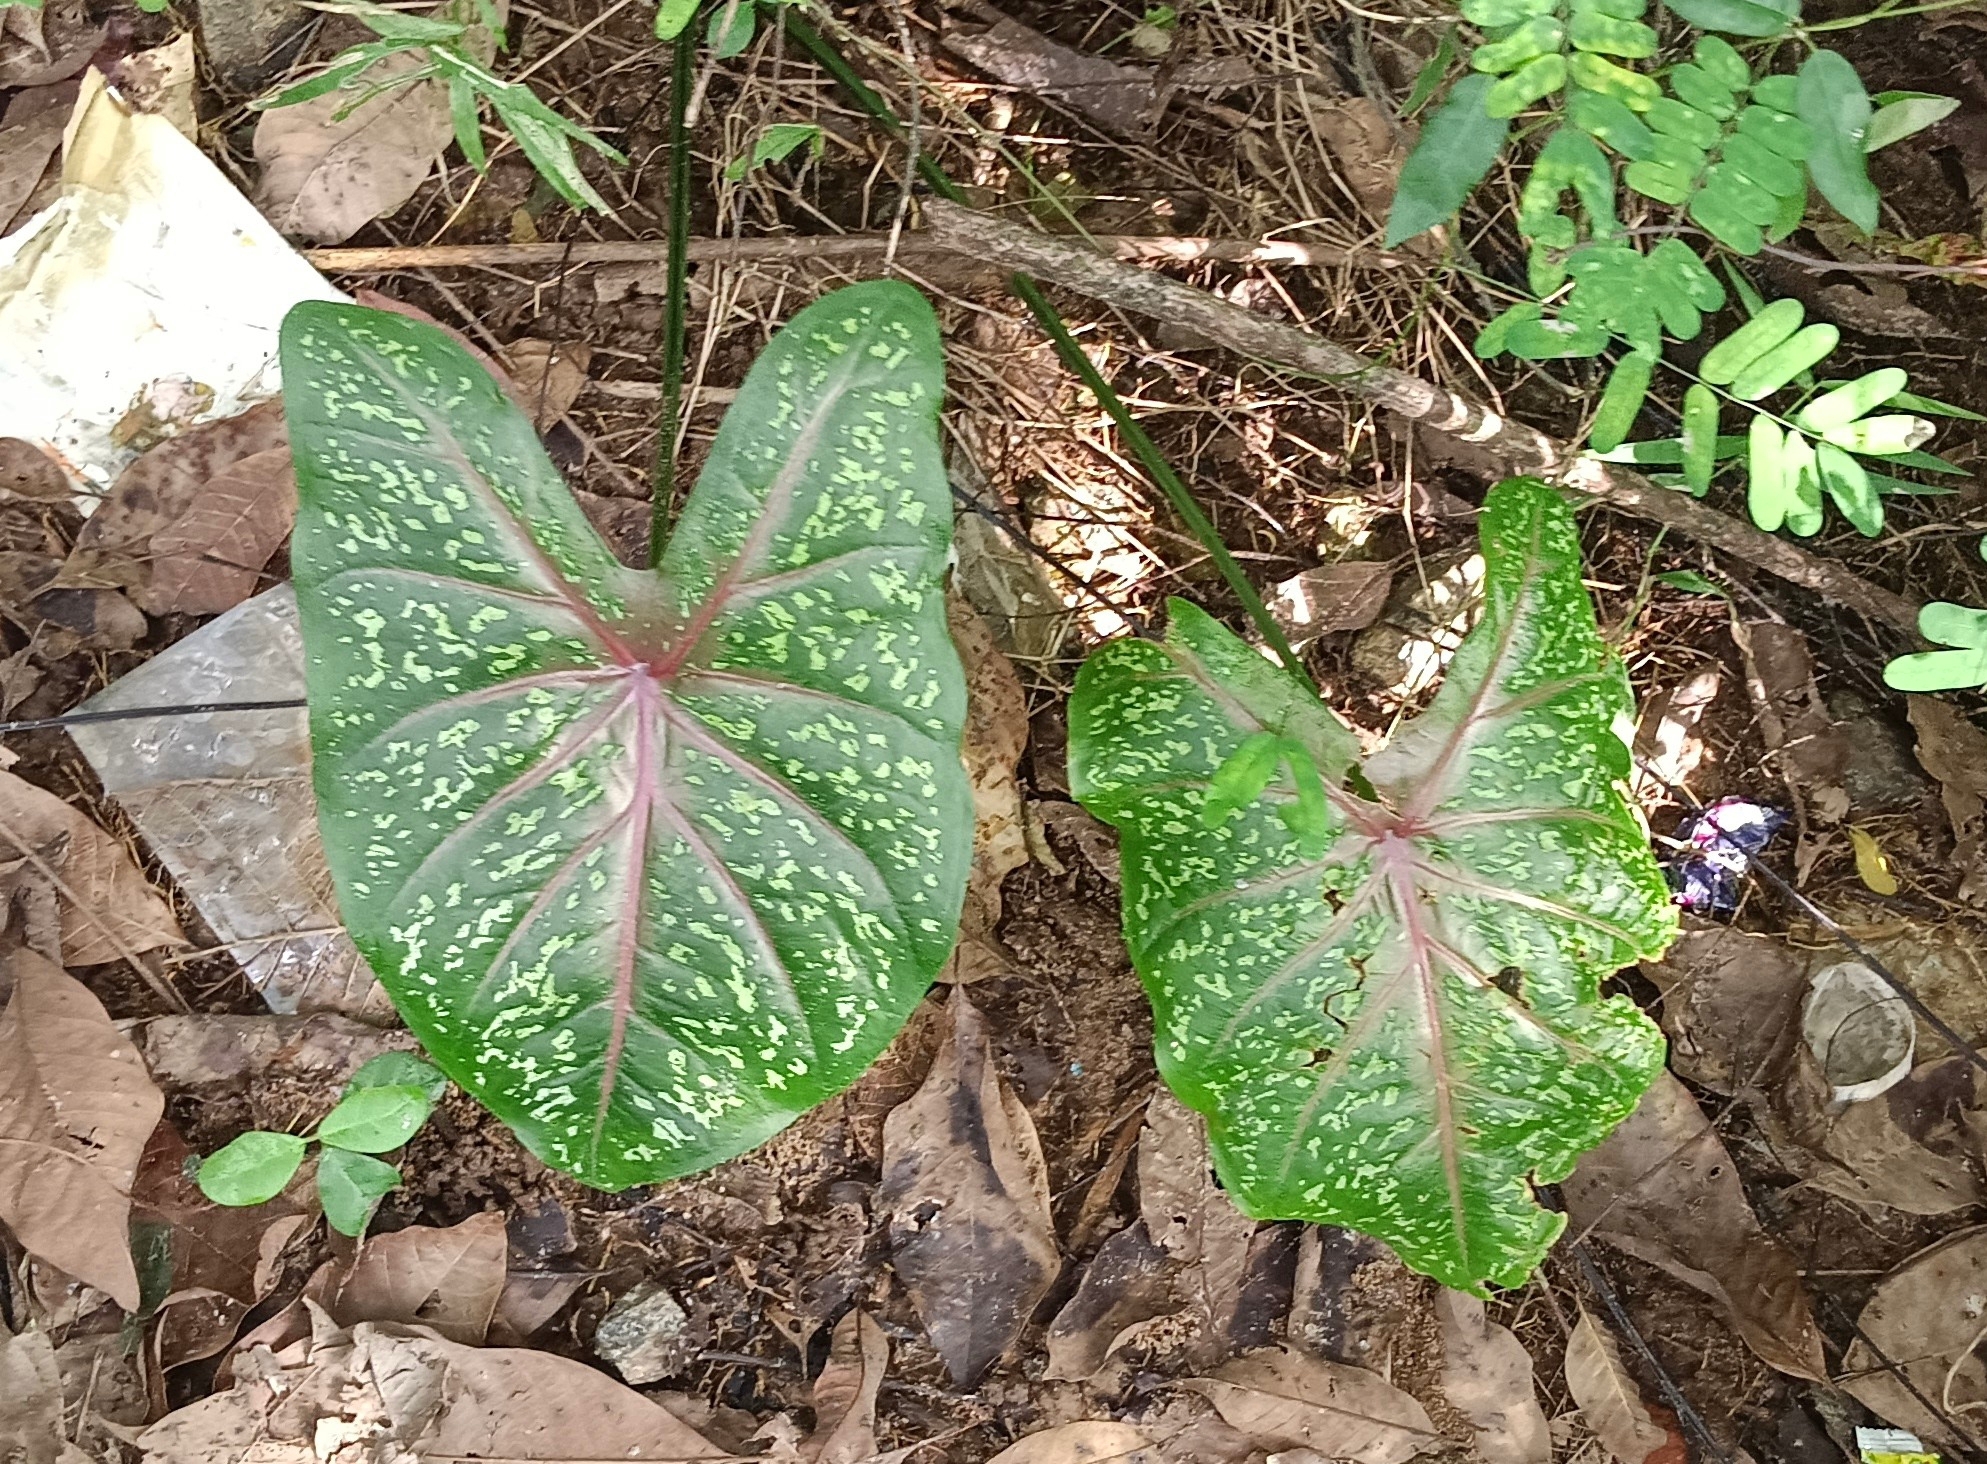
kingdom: Plantae
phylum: Tracheophyta
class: Liliopsida
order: Alismatales
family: Araceae
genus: Caladium
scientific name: Caladium bicolor
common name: Artist's pallet
